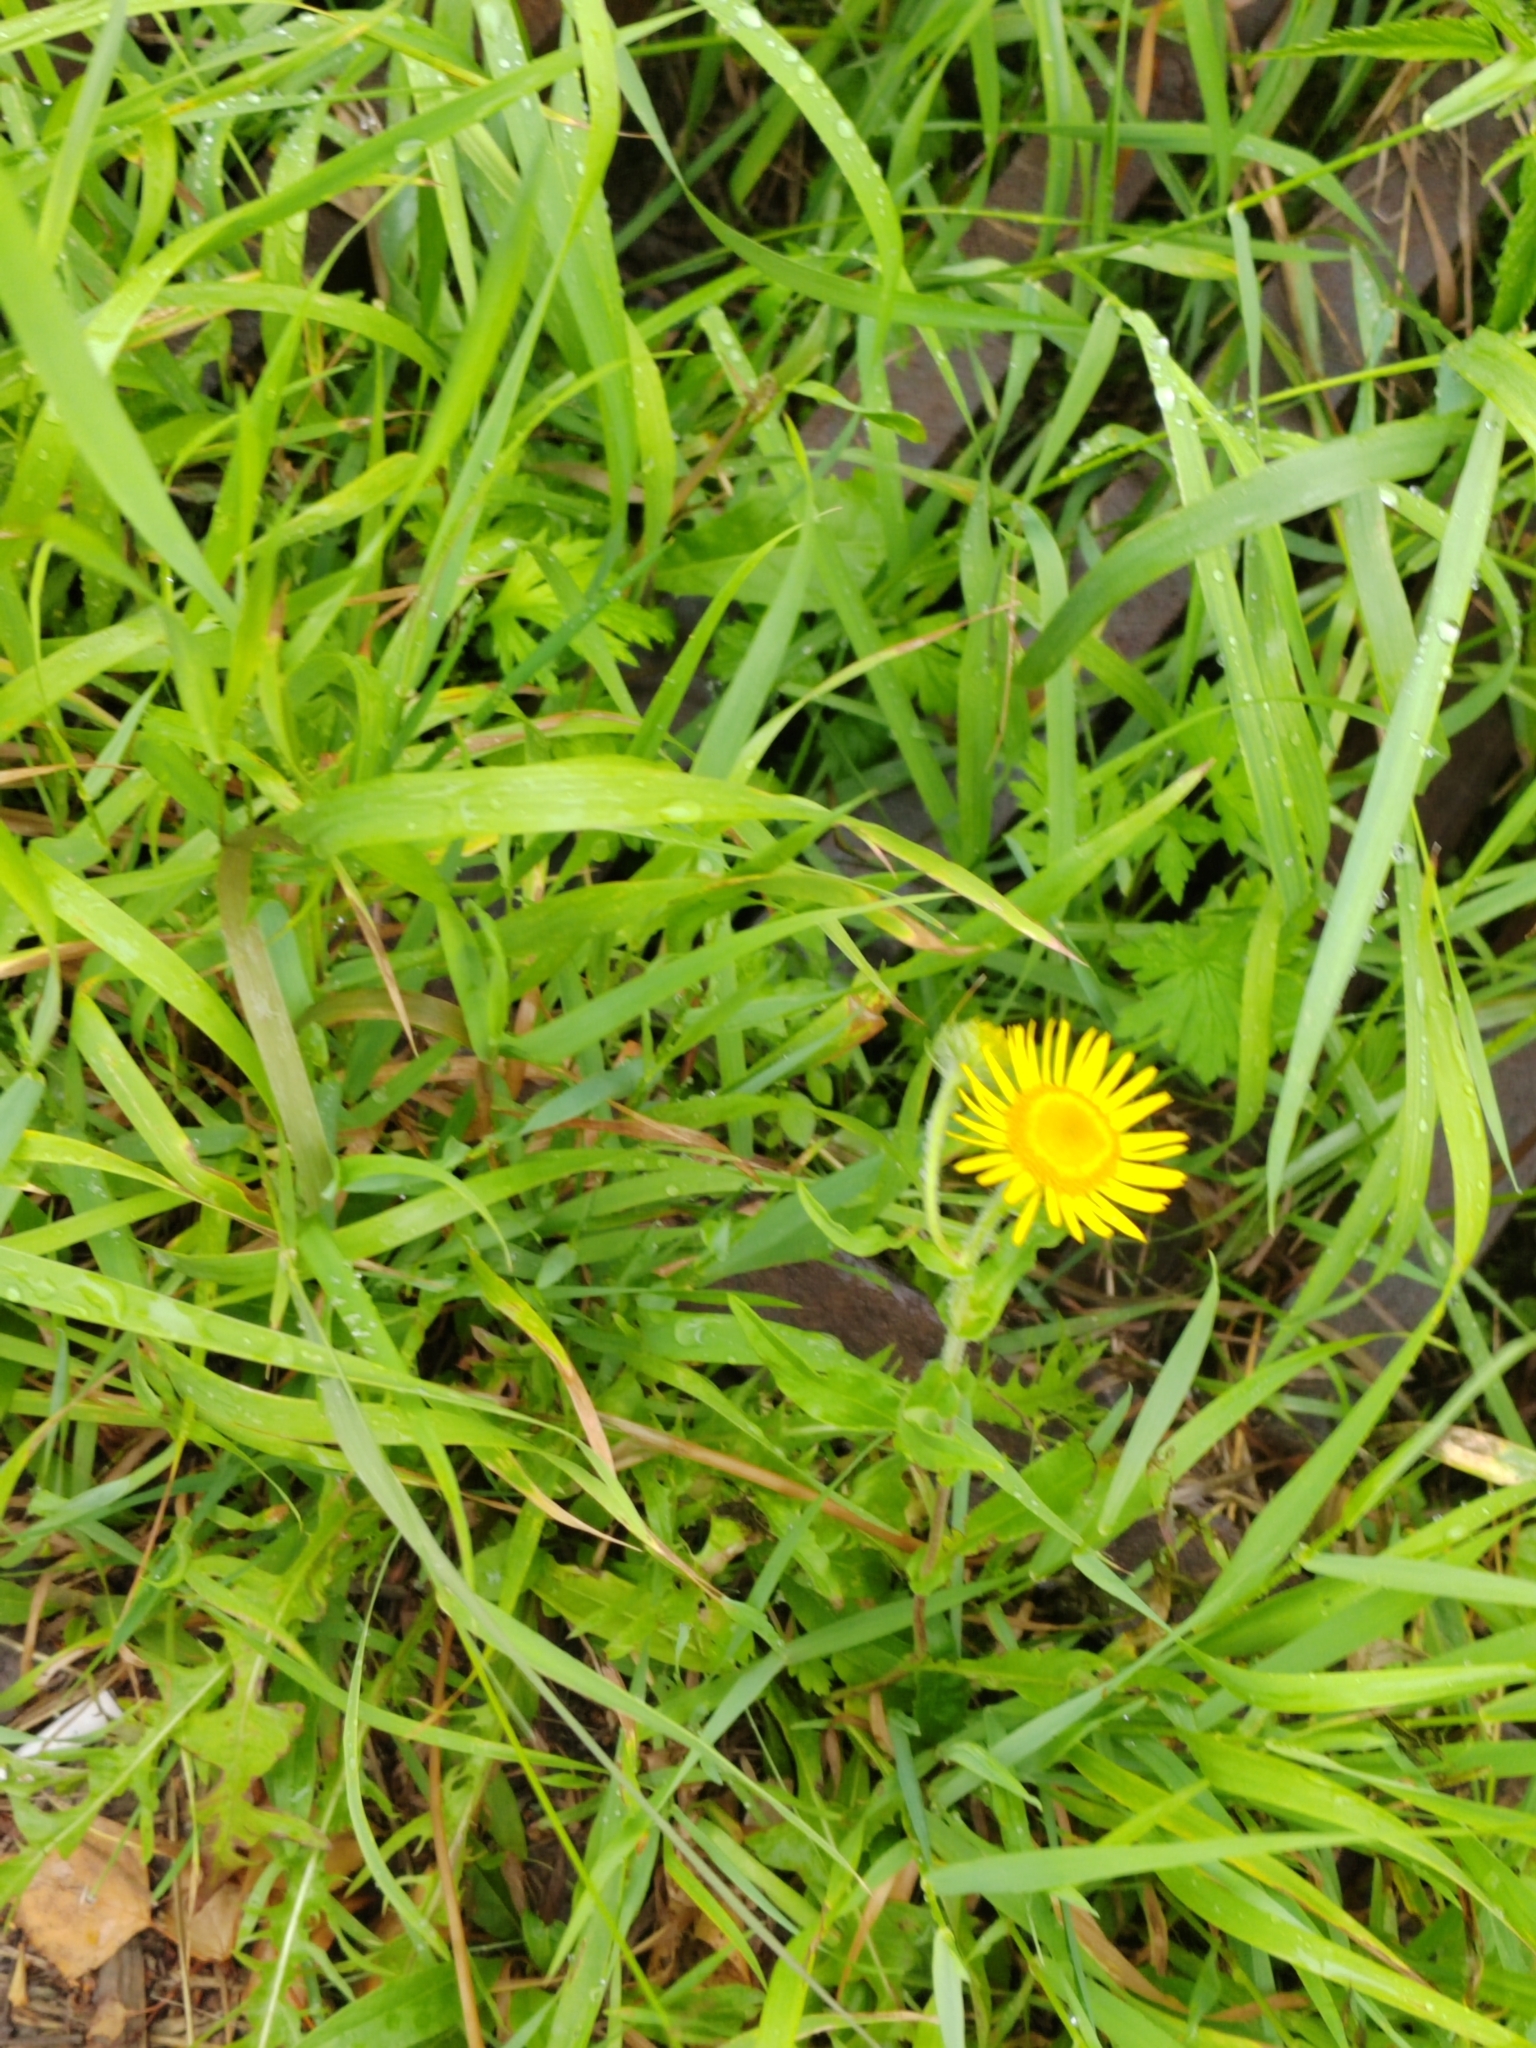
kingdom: Plantae
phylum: Tracheophyta
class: Magnoliopsida
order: Asterales
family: Asteraceae
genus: Pentanema
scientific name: Pentanema britannicum
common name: British elecampane
